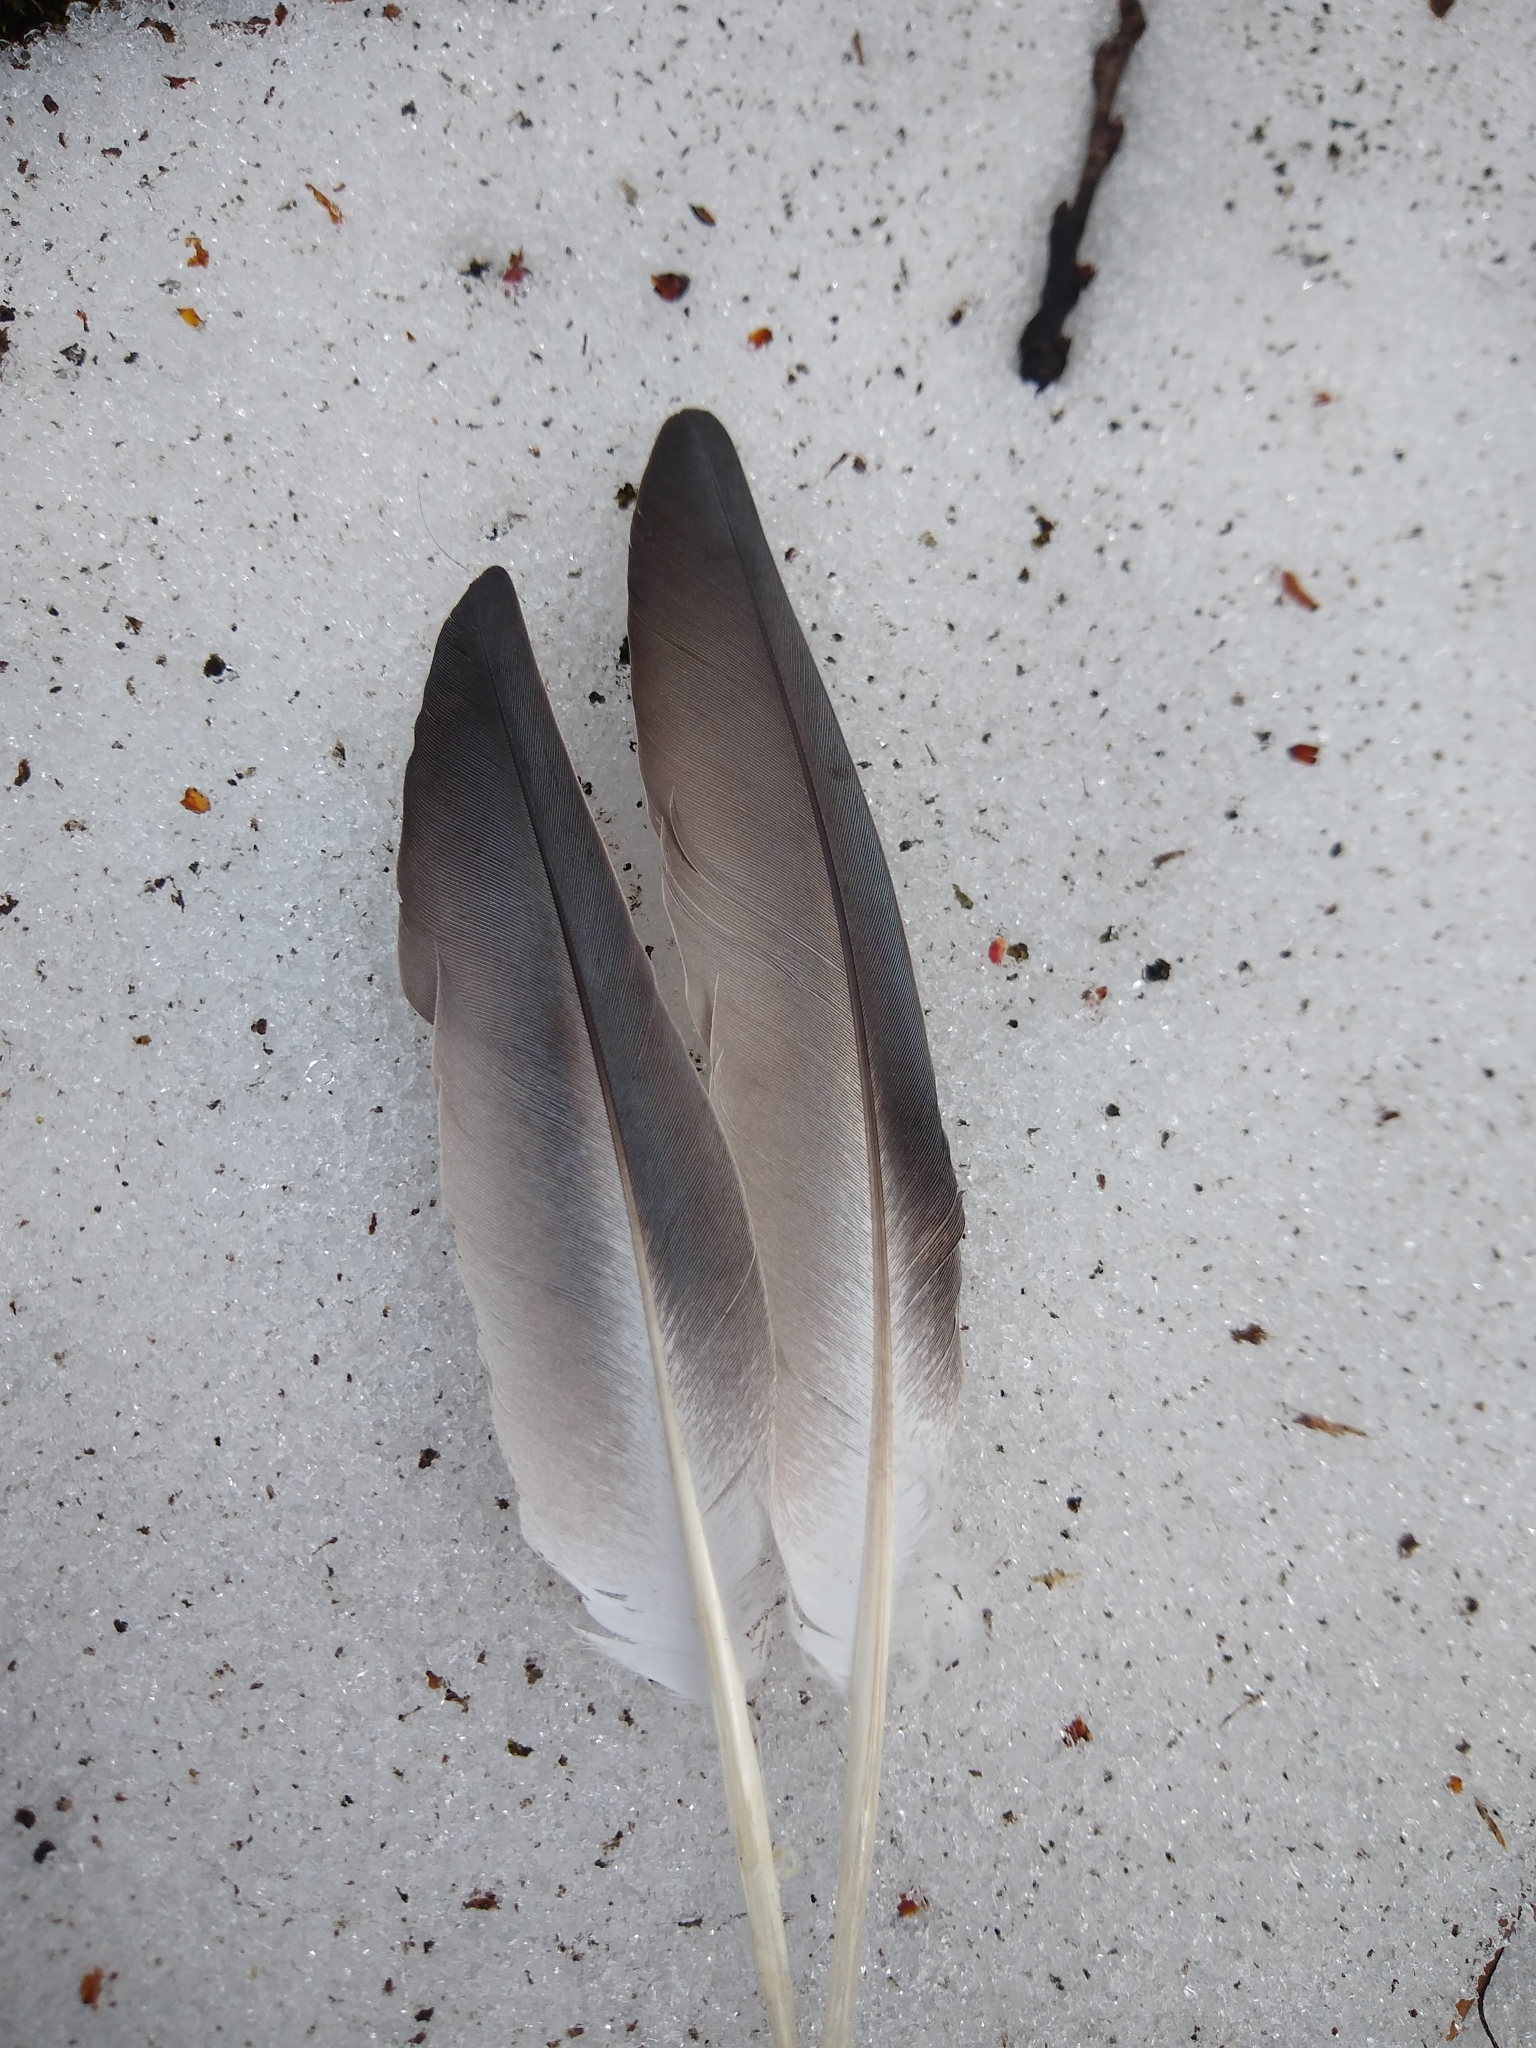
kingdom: Animalia
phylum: Chordata
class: Aves
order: Columbiformes
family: Columbidae
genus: Columba
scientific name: Columba livia
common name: Rock pigeon
